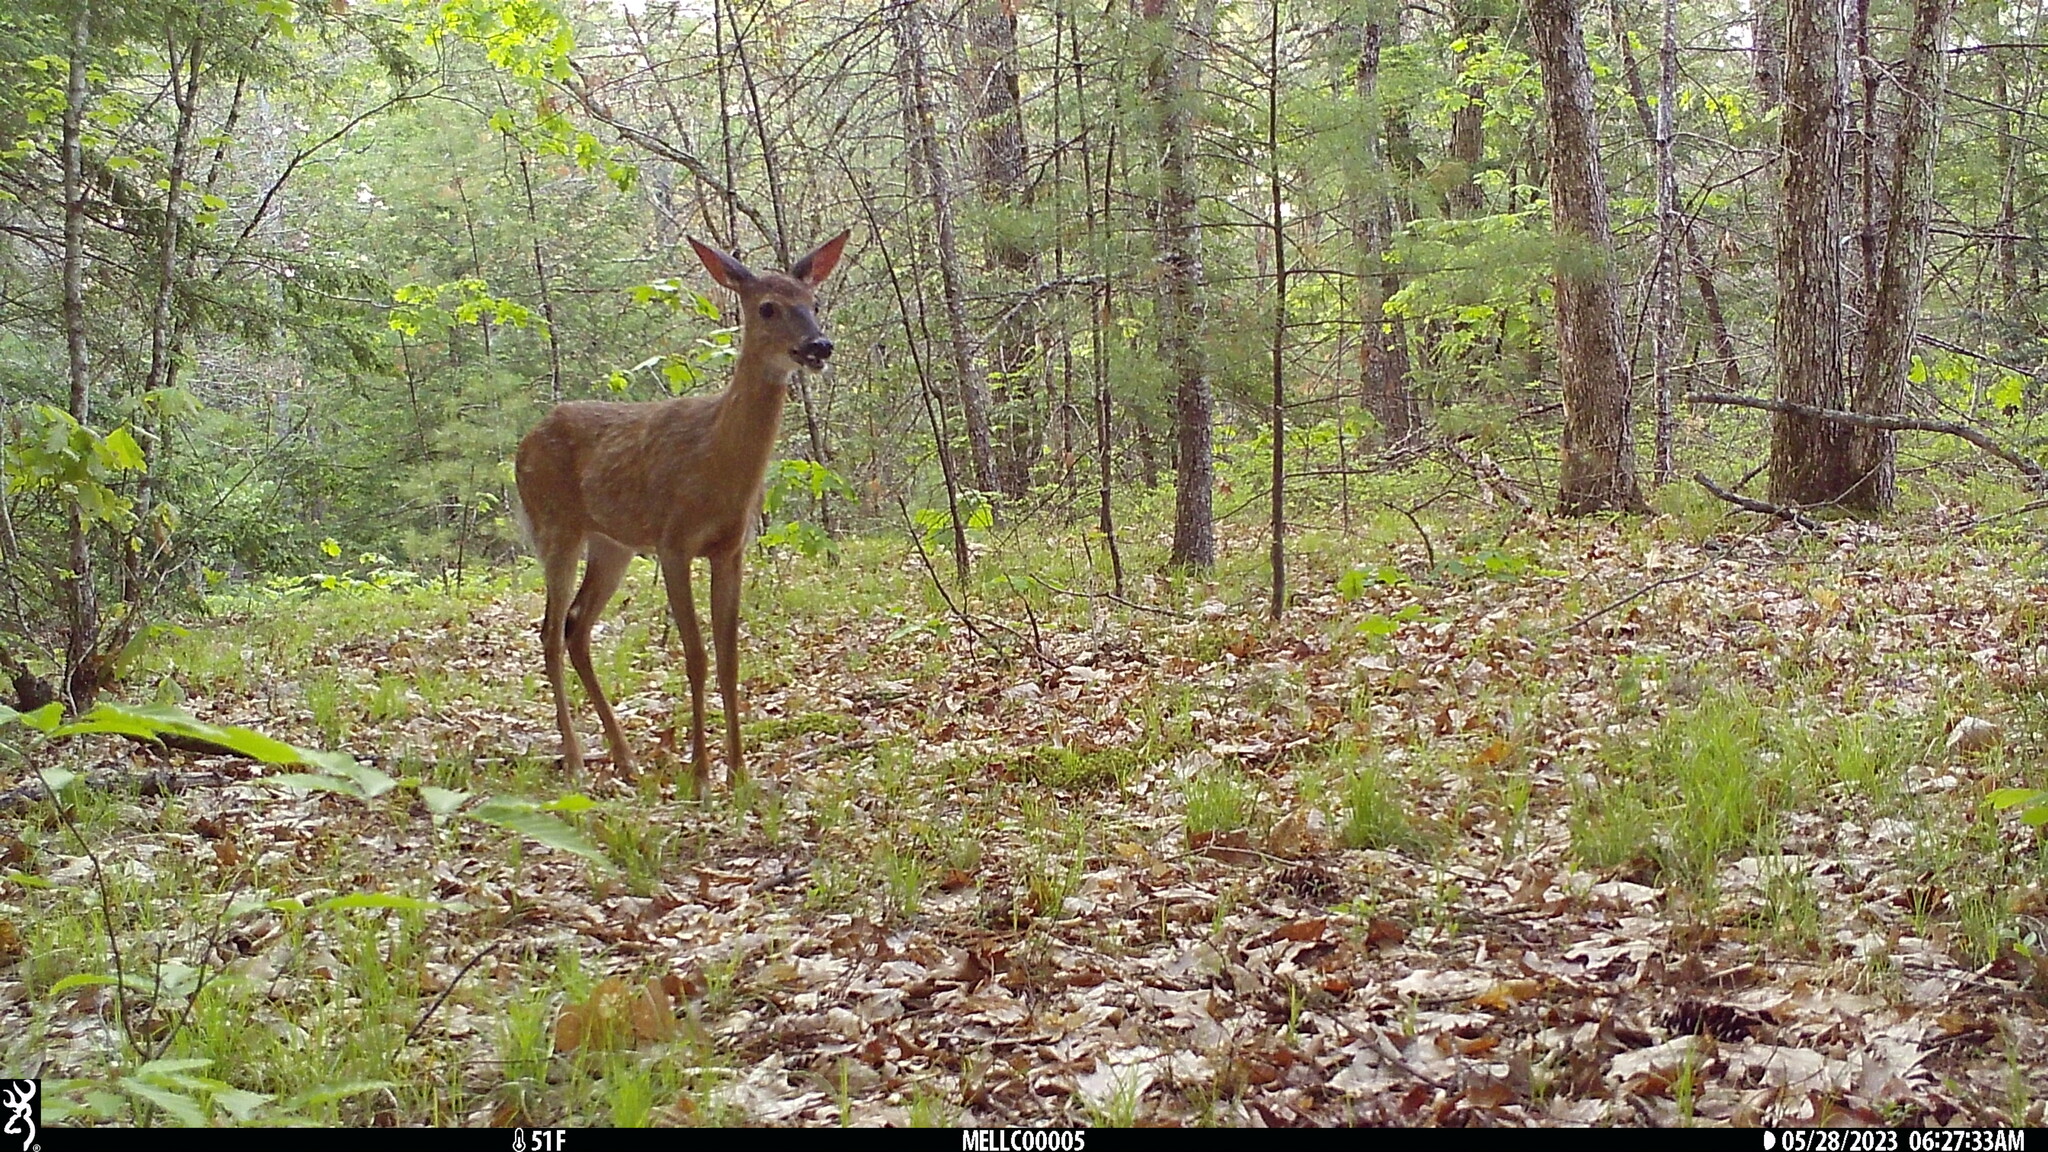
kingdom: Animalia
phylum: Chordata
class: Mammalia
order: Artiodactyla
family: Cervidae
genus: Odocoileus
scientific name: Odocoileus virginianus
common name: White-tailed deer
